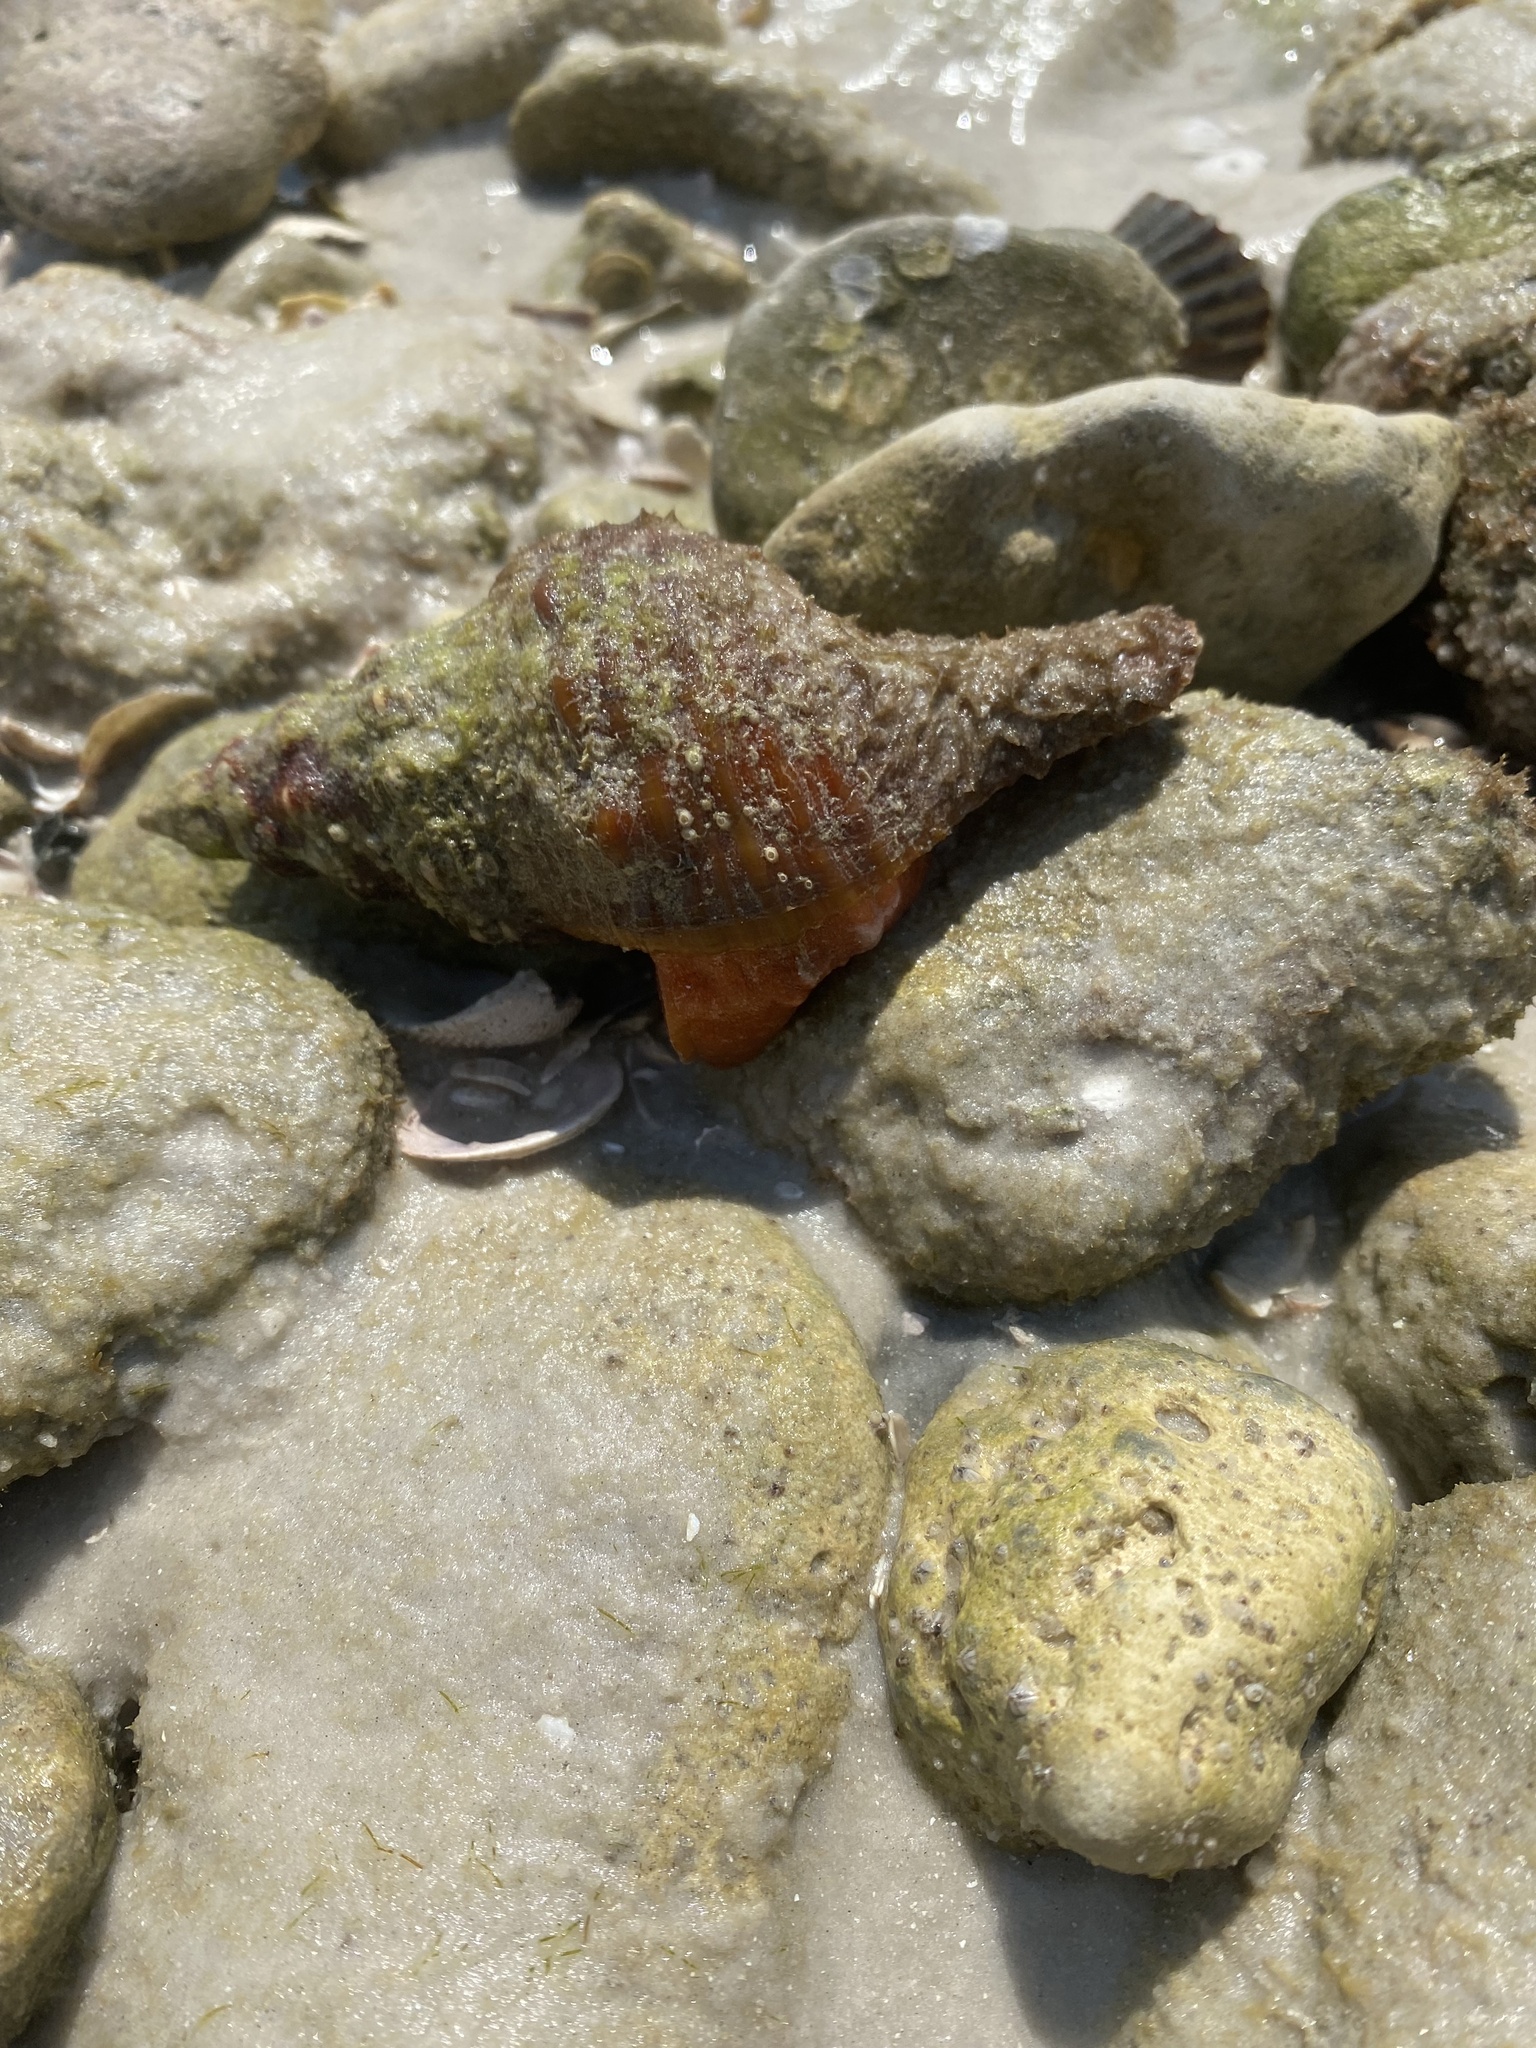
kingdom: Animalia
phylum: Mollusca
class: Gastropoda
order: Neogastropoda
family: Fasciolariidae
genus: Triplofusus
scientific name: Triplofusus giganteus
